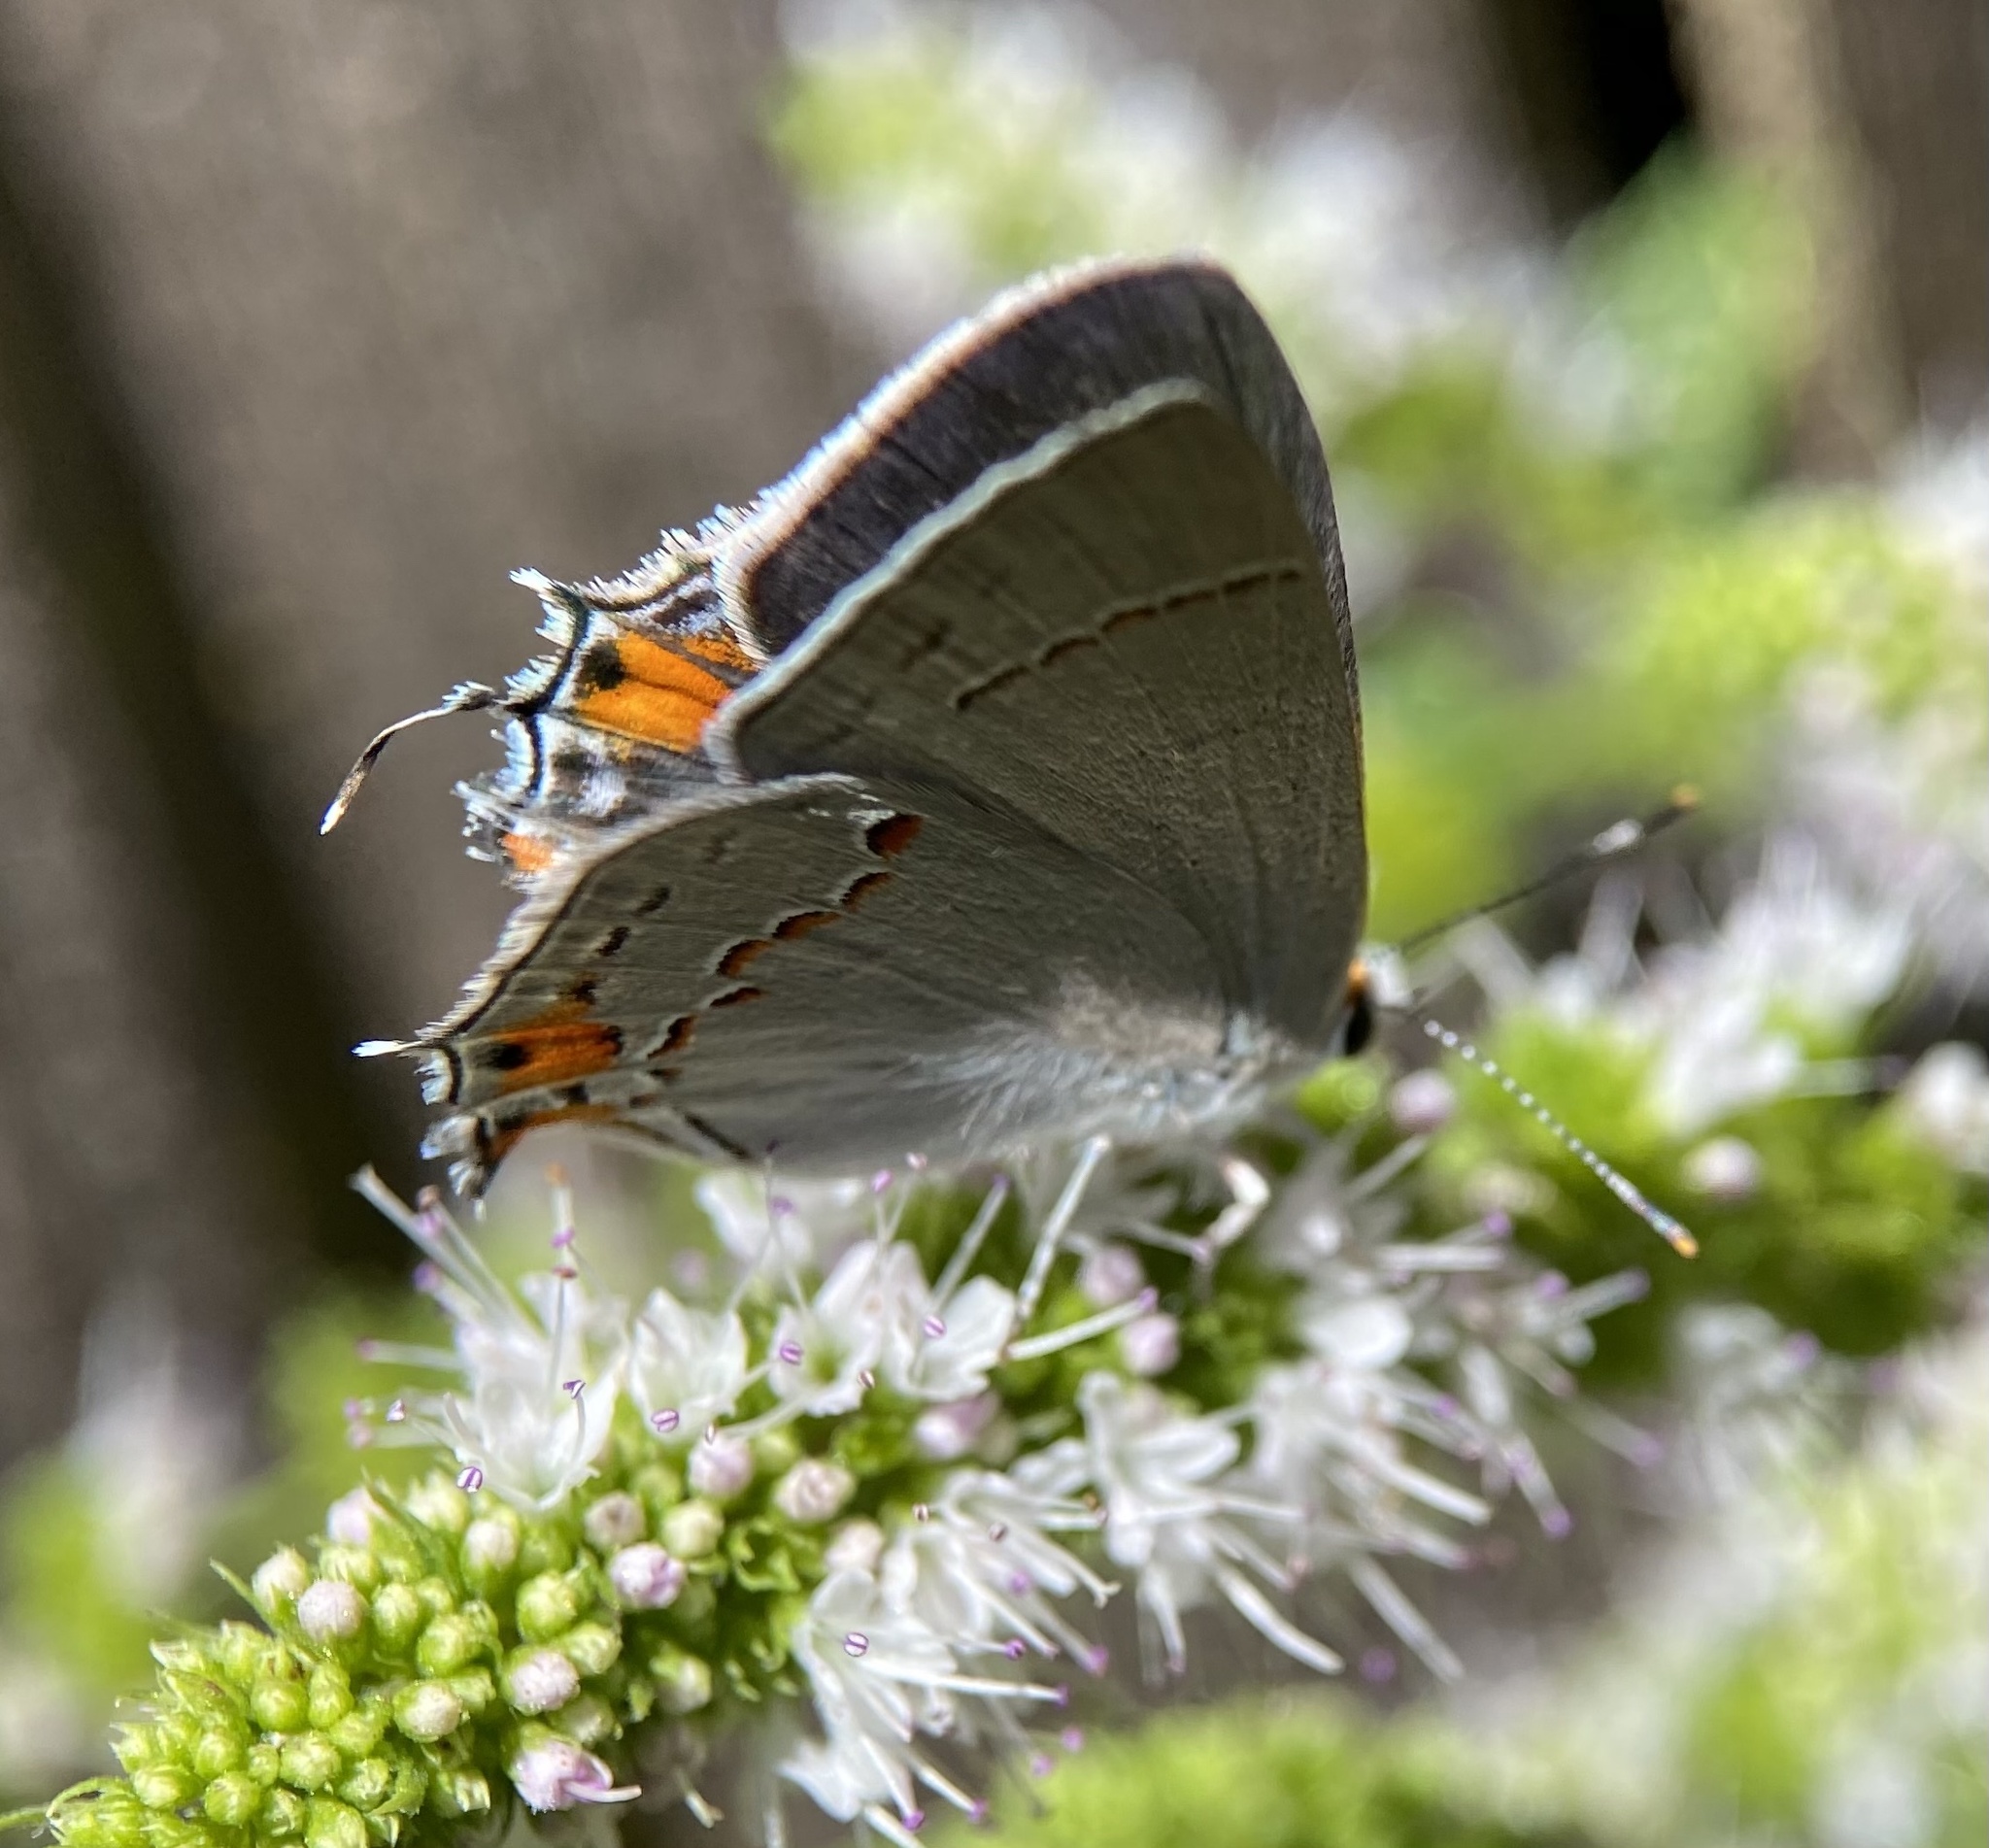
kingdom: Animalia
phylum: Arthropoda
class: Insecta
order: Lepidoptera
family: Lycaenidae
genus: Strymon
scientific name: Strymon melinus
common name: Gray hairstreak
